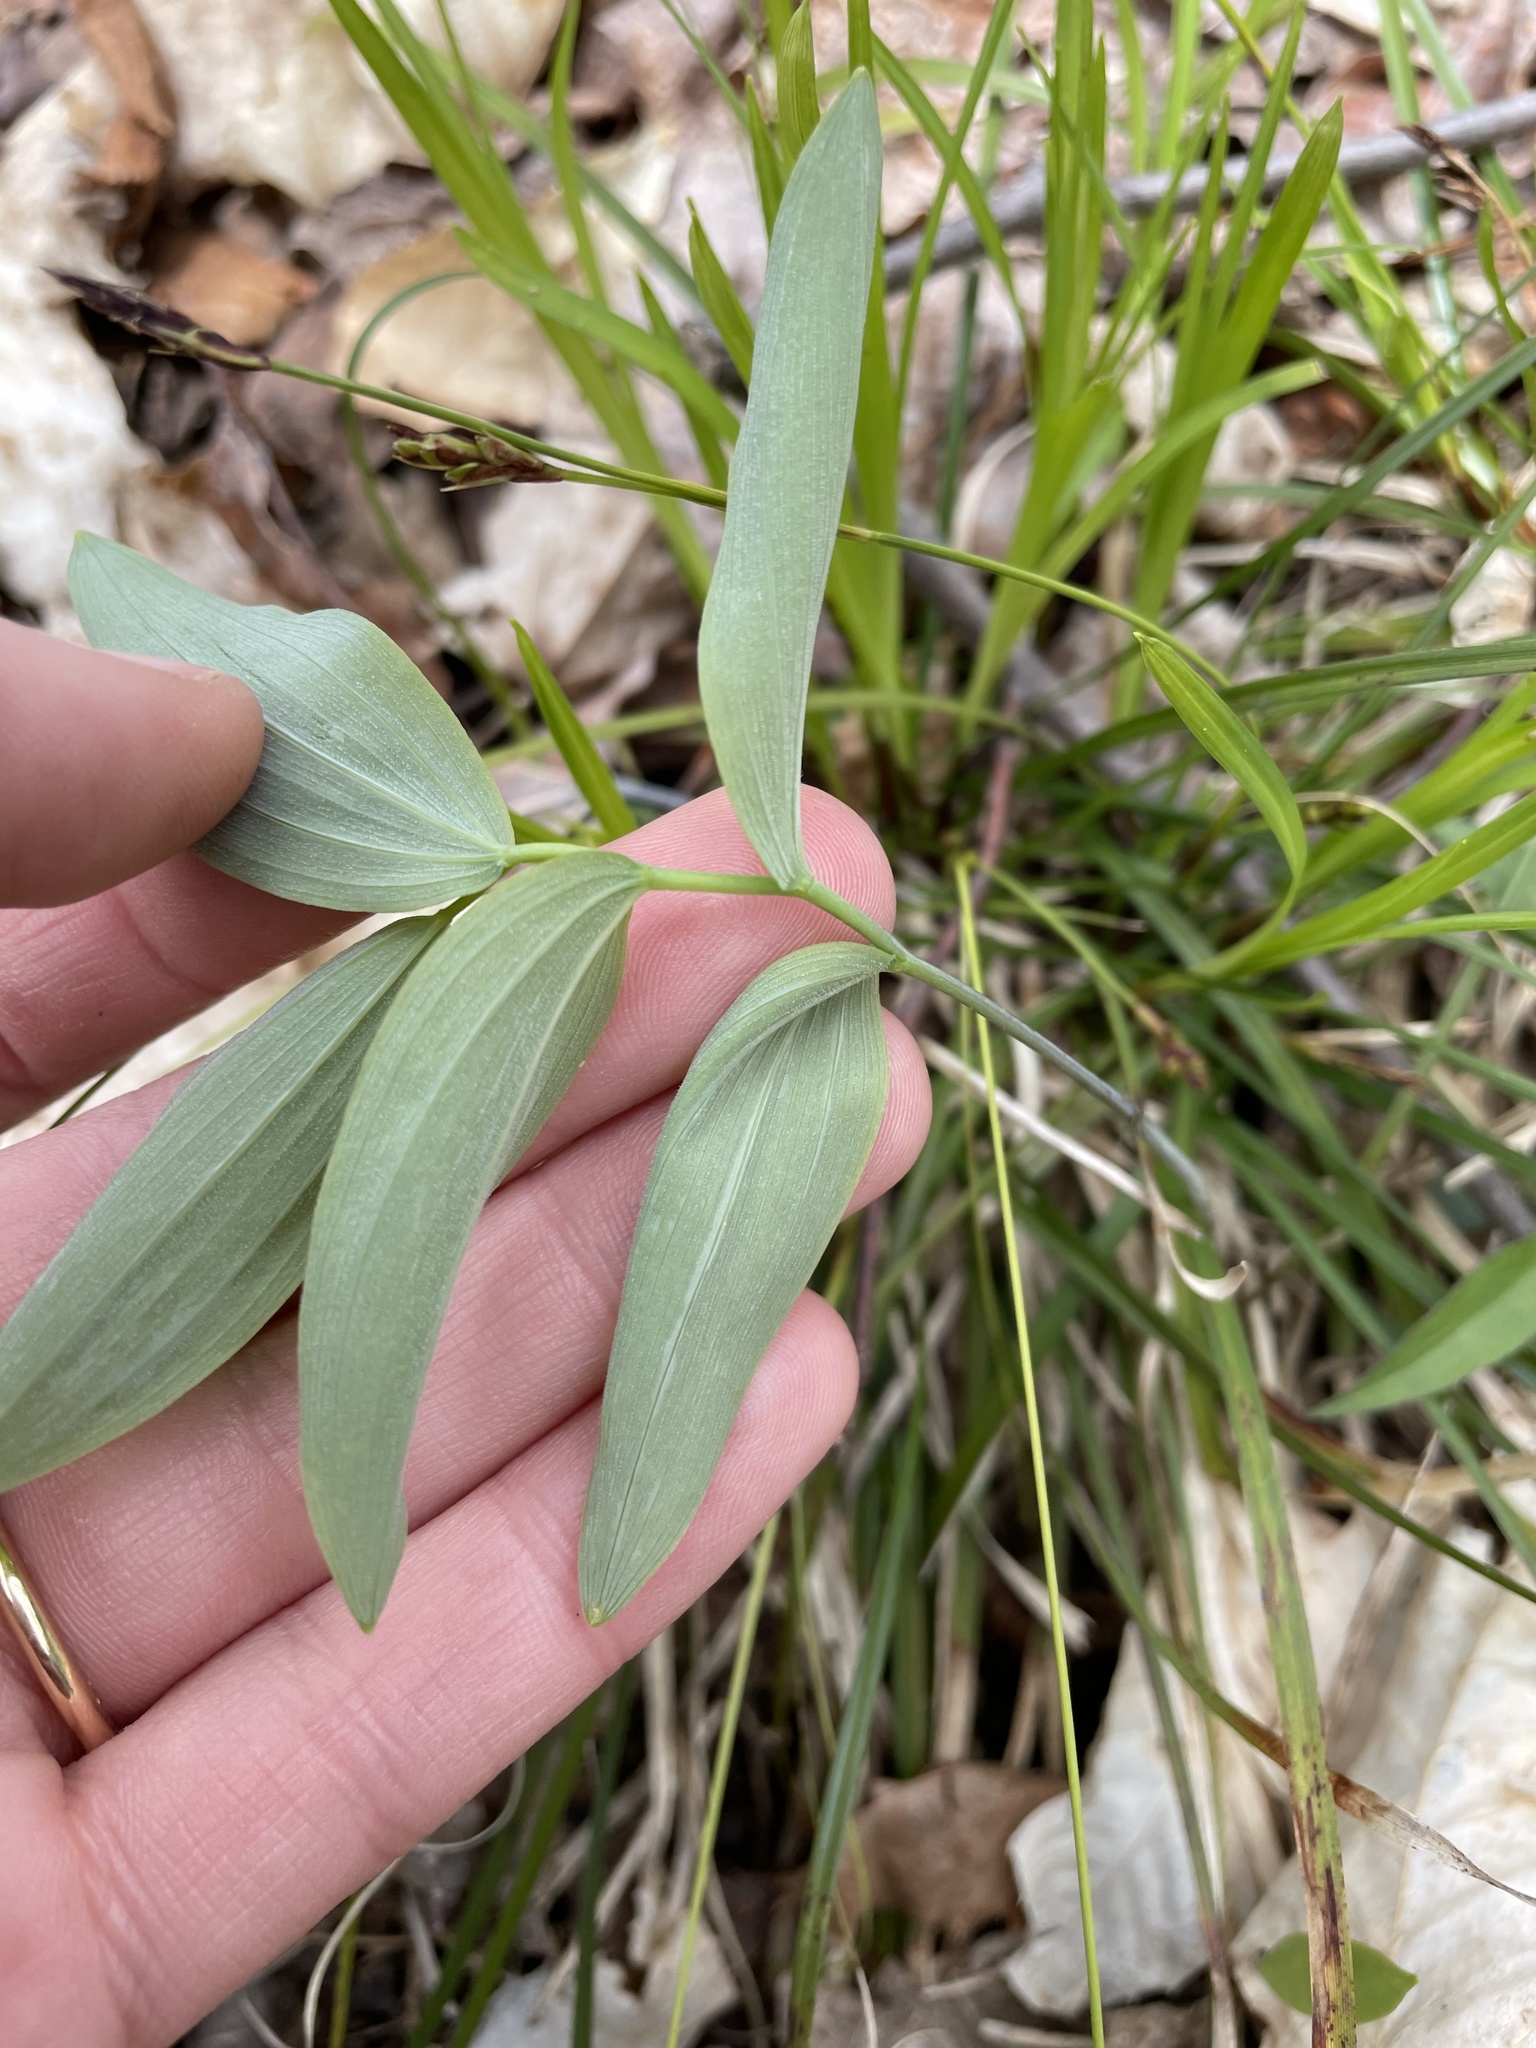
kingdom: Plantae
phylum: Tracheophyta
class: Liliopsida
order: Asparagales
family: Asparagaceae
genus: Polygonatum
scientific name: Polygonatum pubescens
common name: Downy solomon's seal
